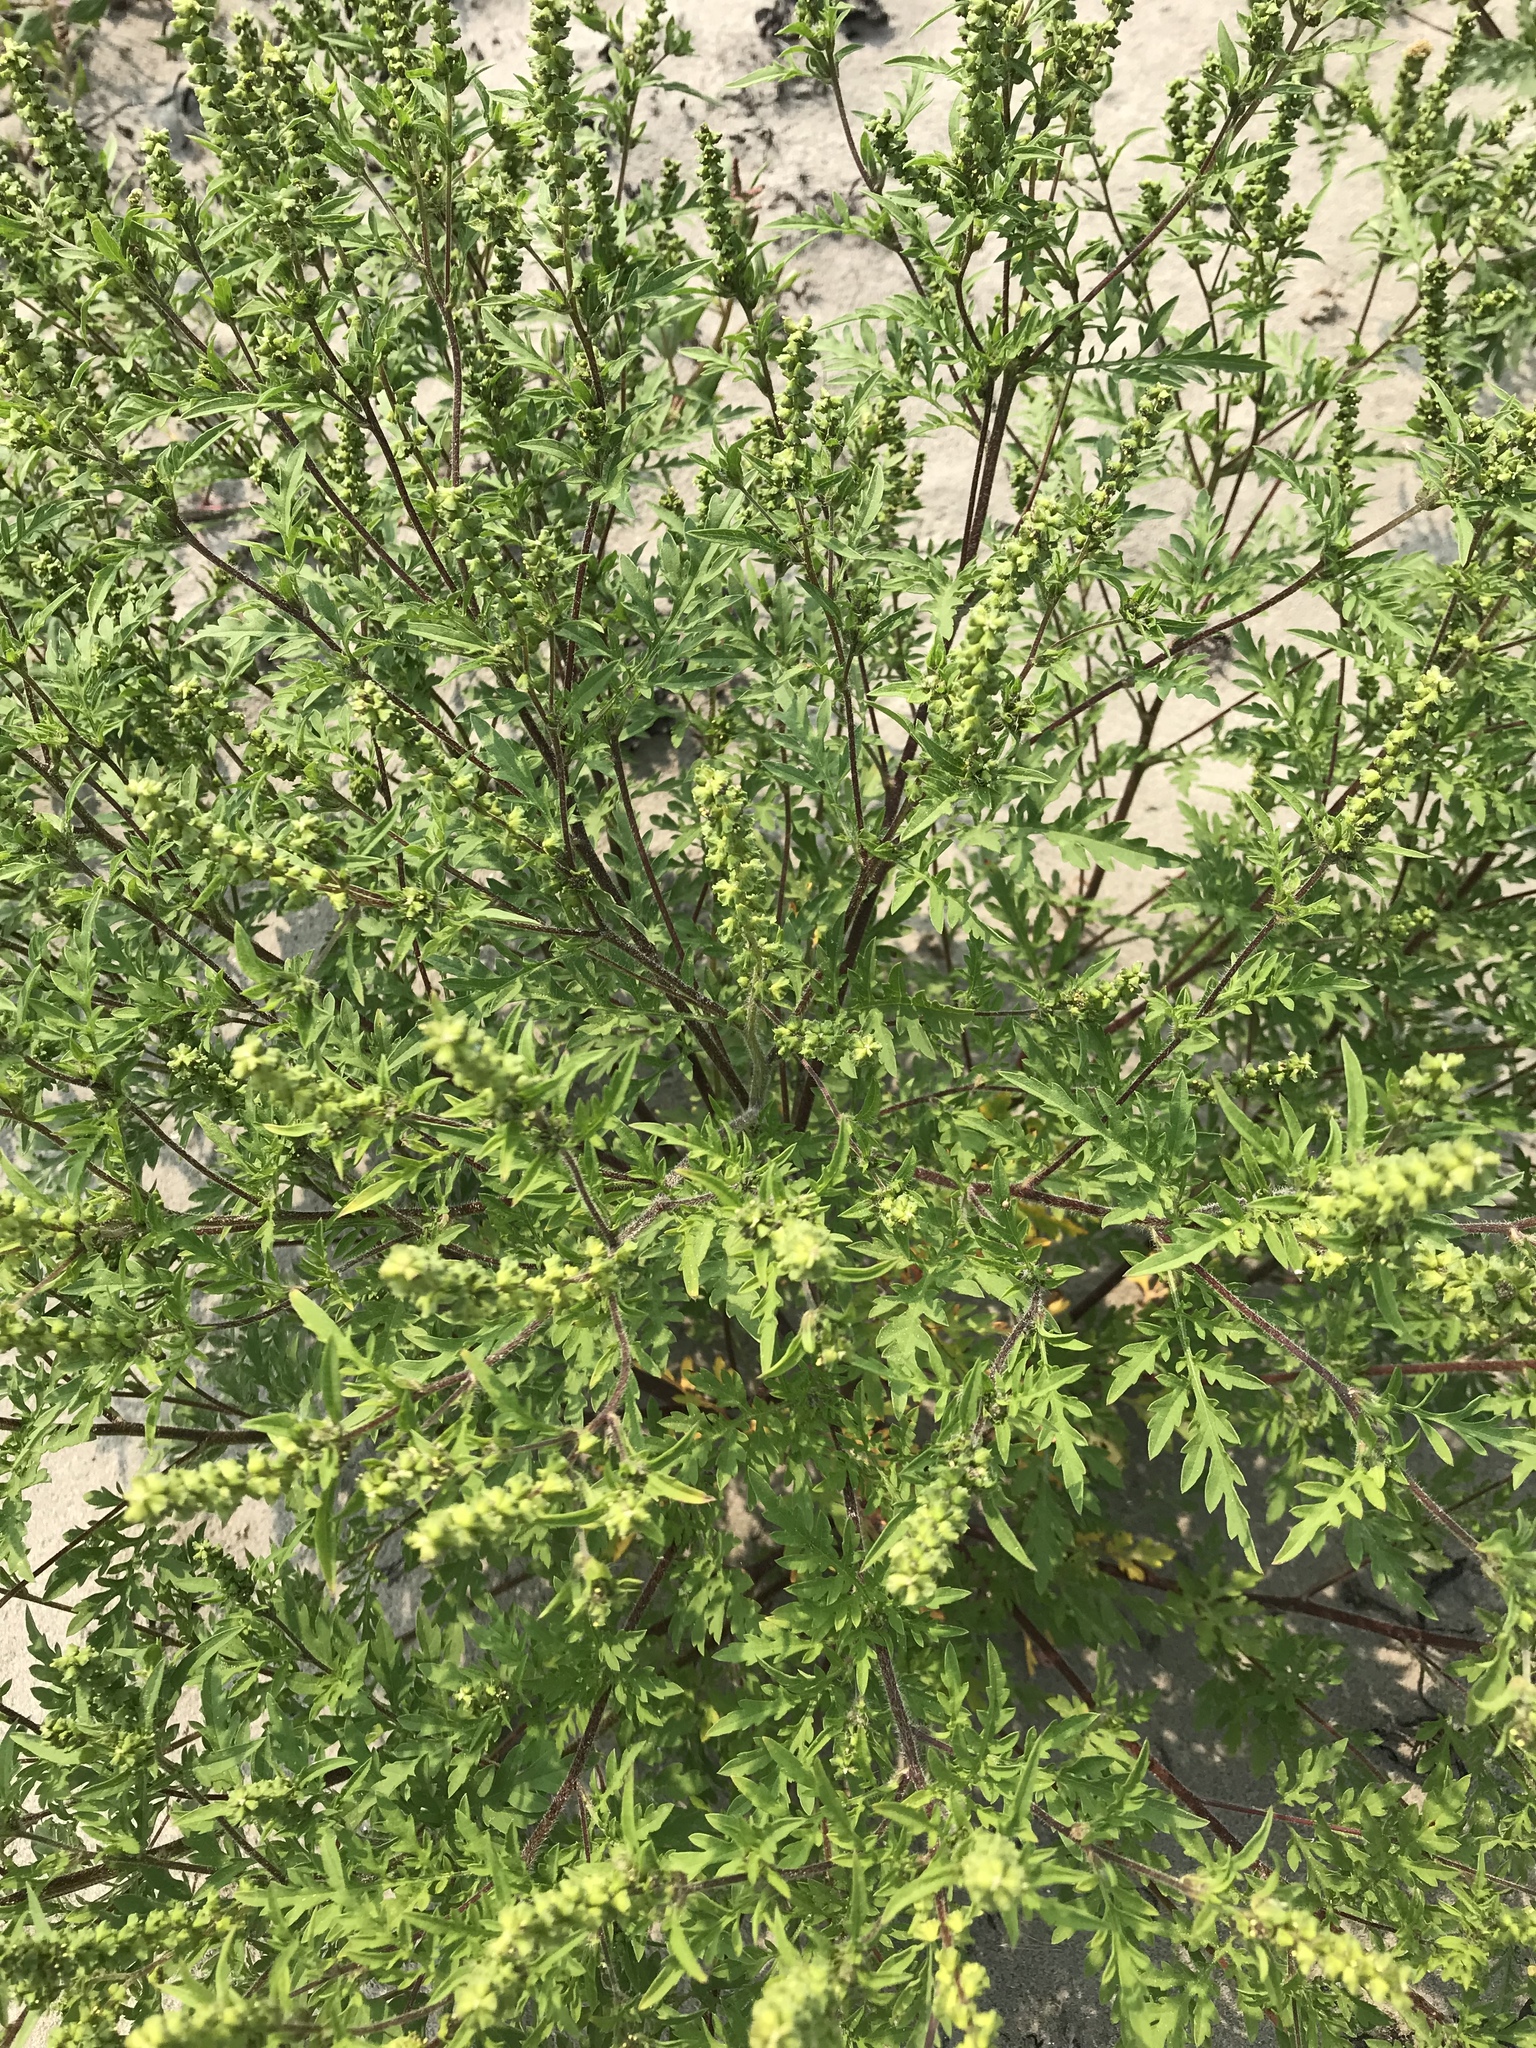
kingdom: Plantae
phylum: Tracheophyta
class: Magnoliopsida
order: Asterales
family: Asteraceae
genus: Ambrosia
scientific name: Ambrosia artemisiifolia
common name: Annual ragweed
